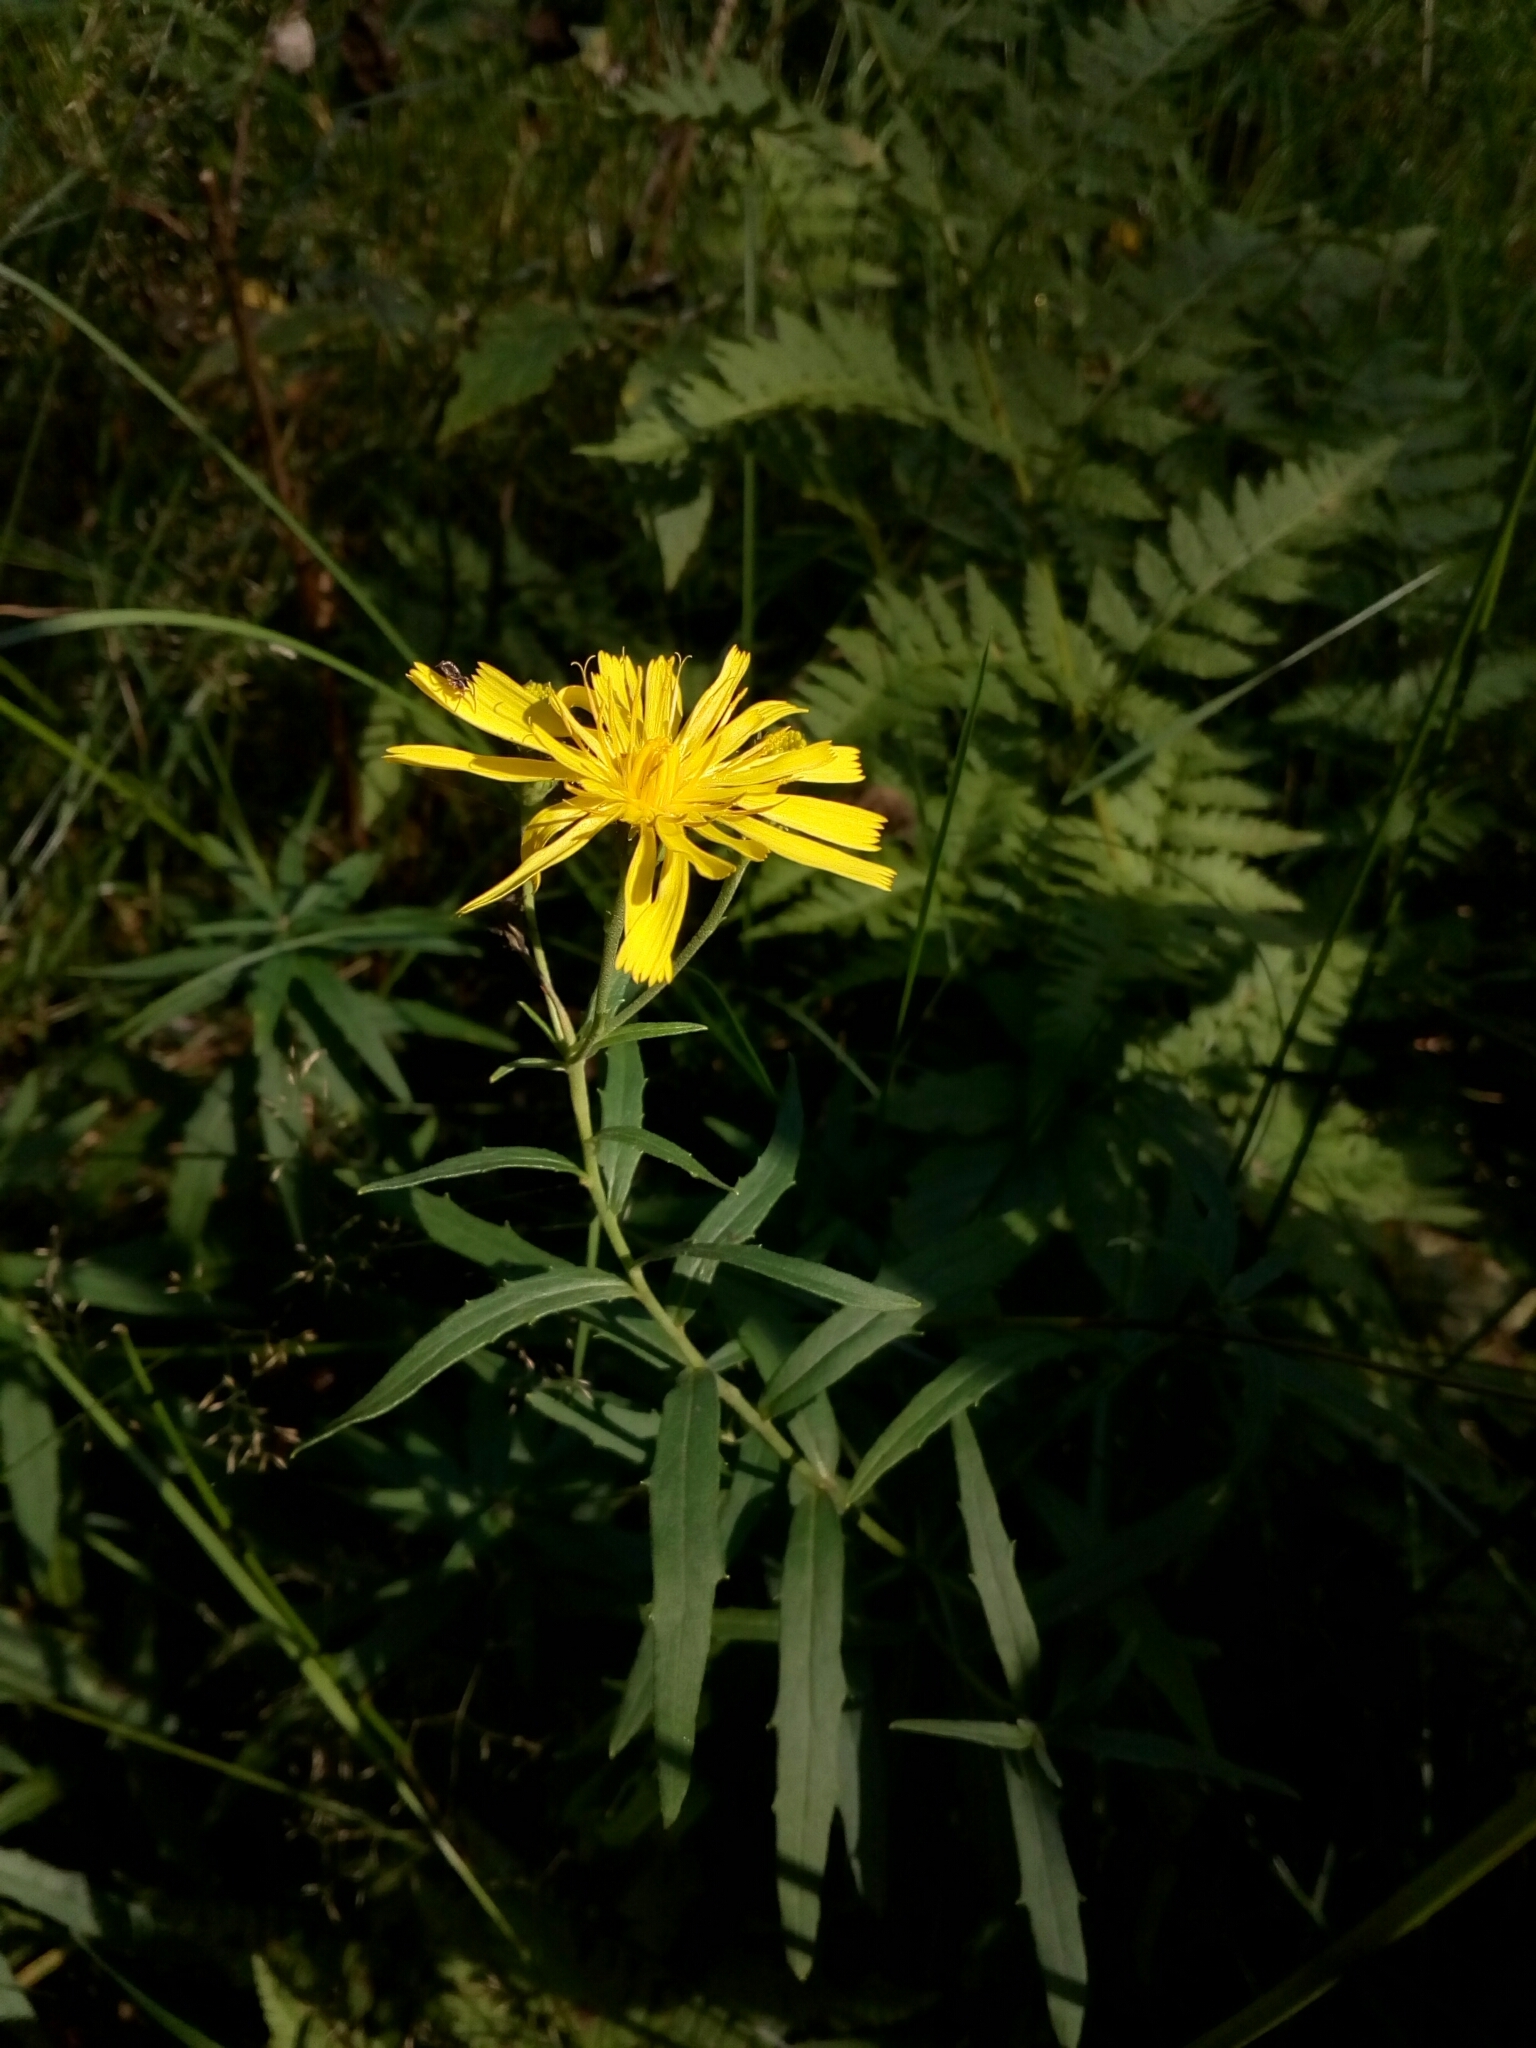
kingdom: Plantae
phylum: Tracheophyta
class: Magnoliopsida
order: Asterales
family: Asteraceae
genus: Hieracium
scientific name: Hieracium umbellatum
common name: Northern hawkweed
